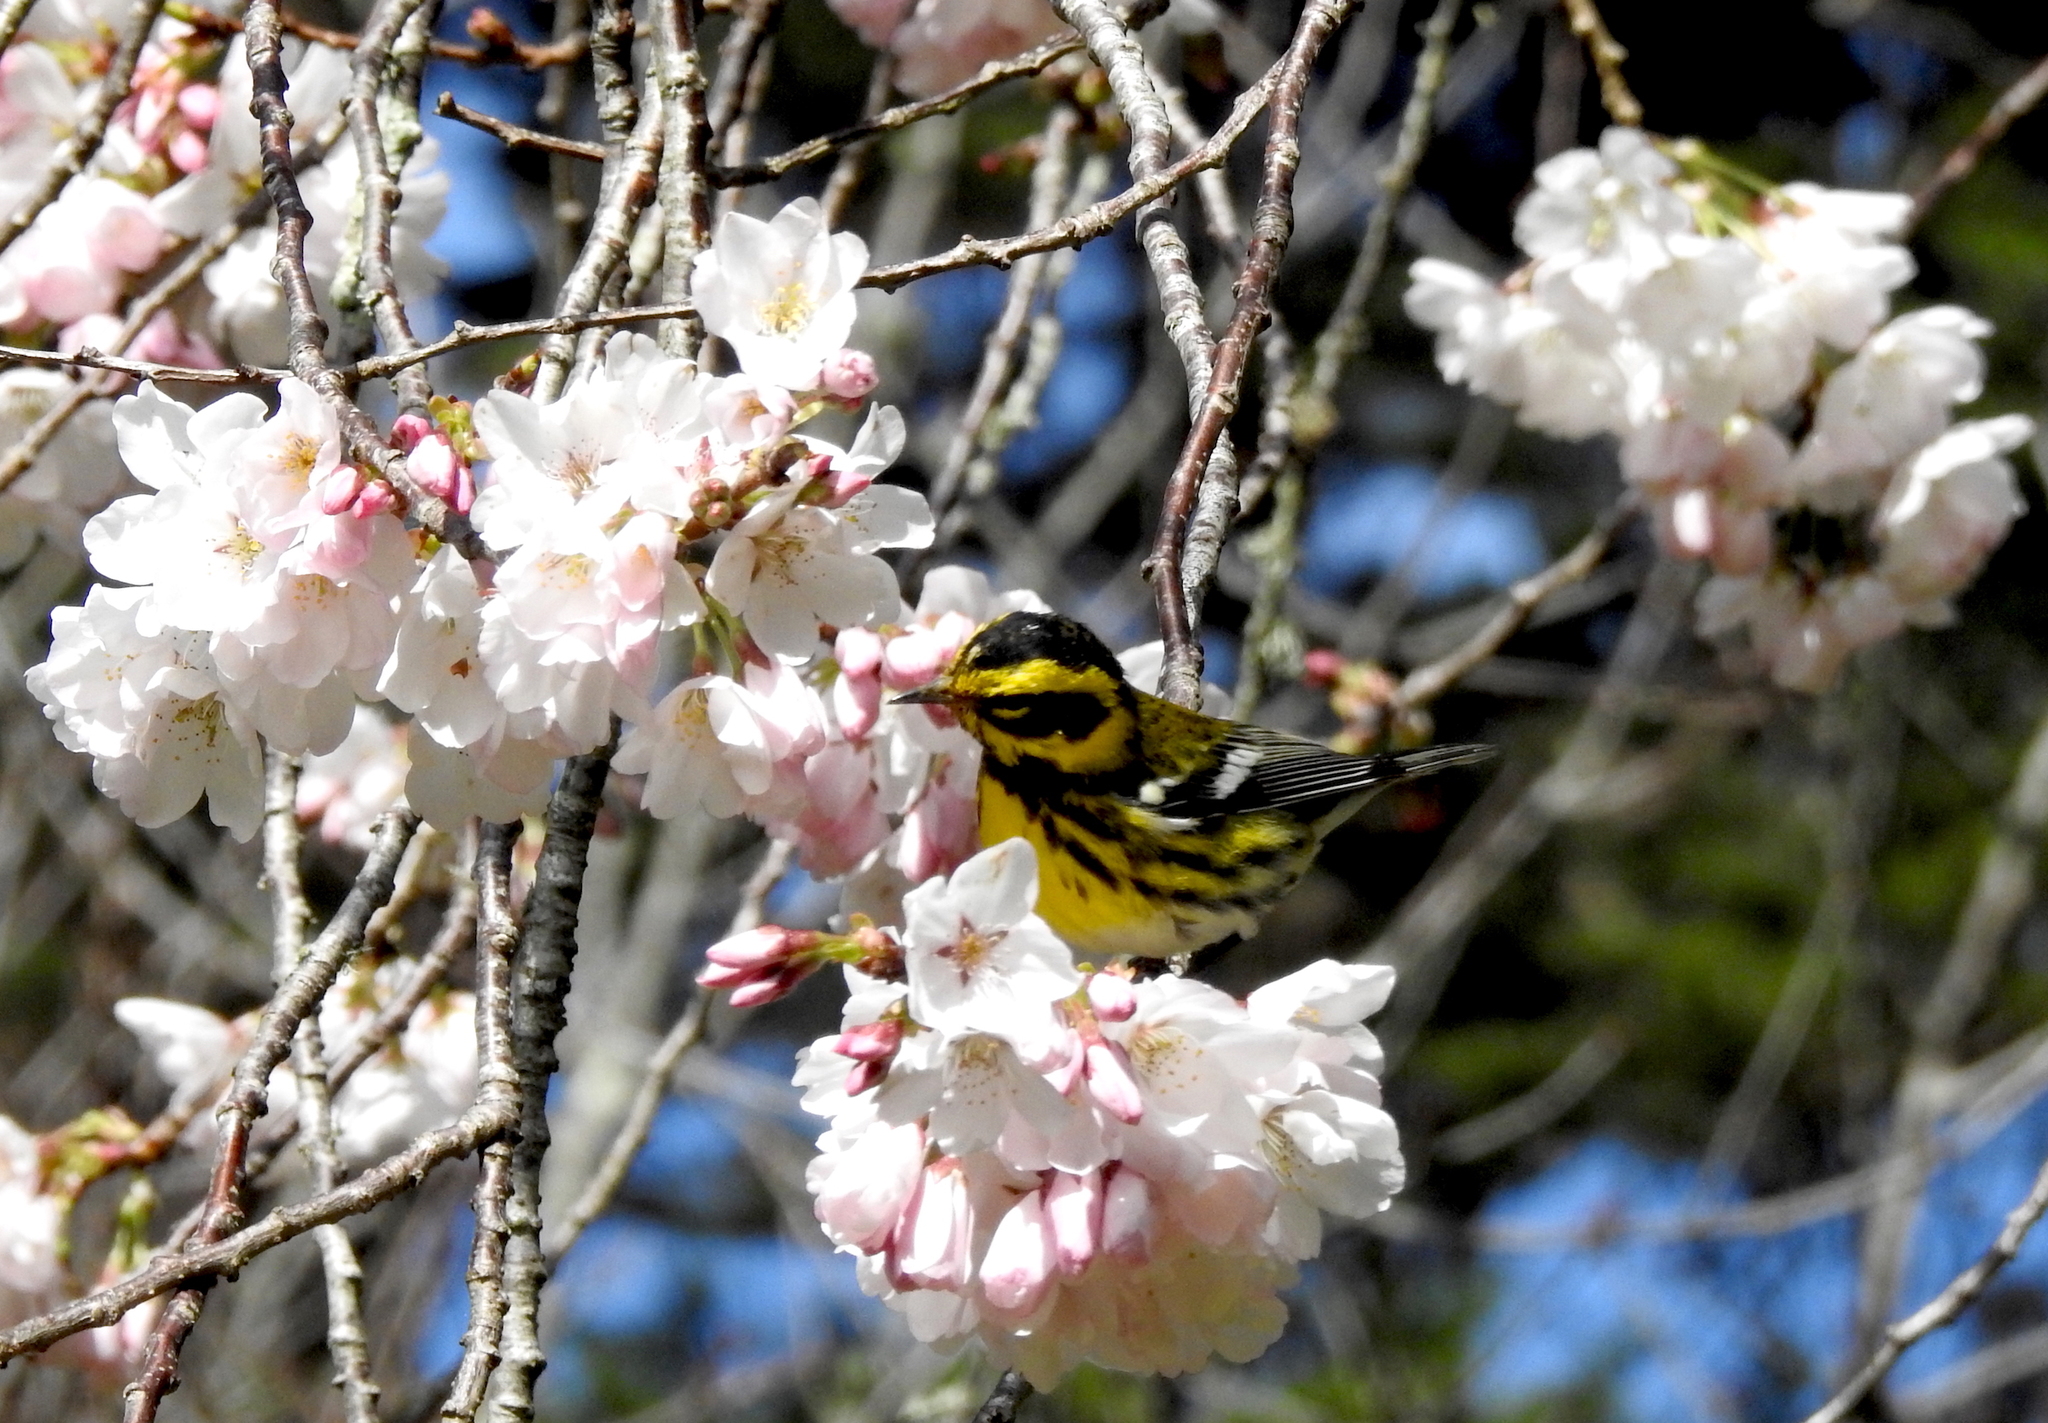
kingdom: Animalia
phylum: Chordata
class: Aves
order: Passeriformes
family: Parulidae
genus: Setophaga
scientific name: Setophaga townsendi
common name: Townsend's warbler
